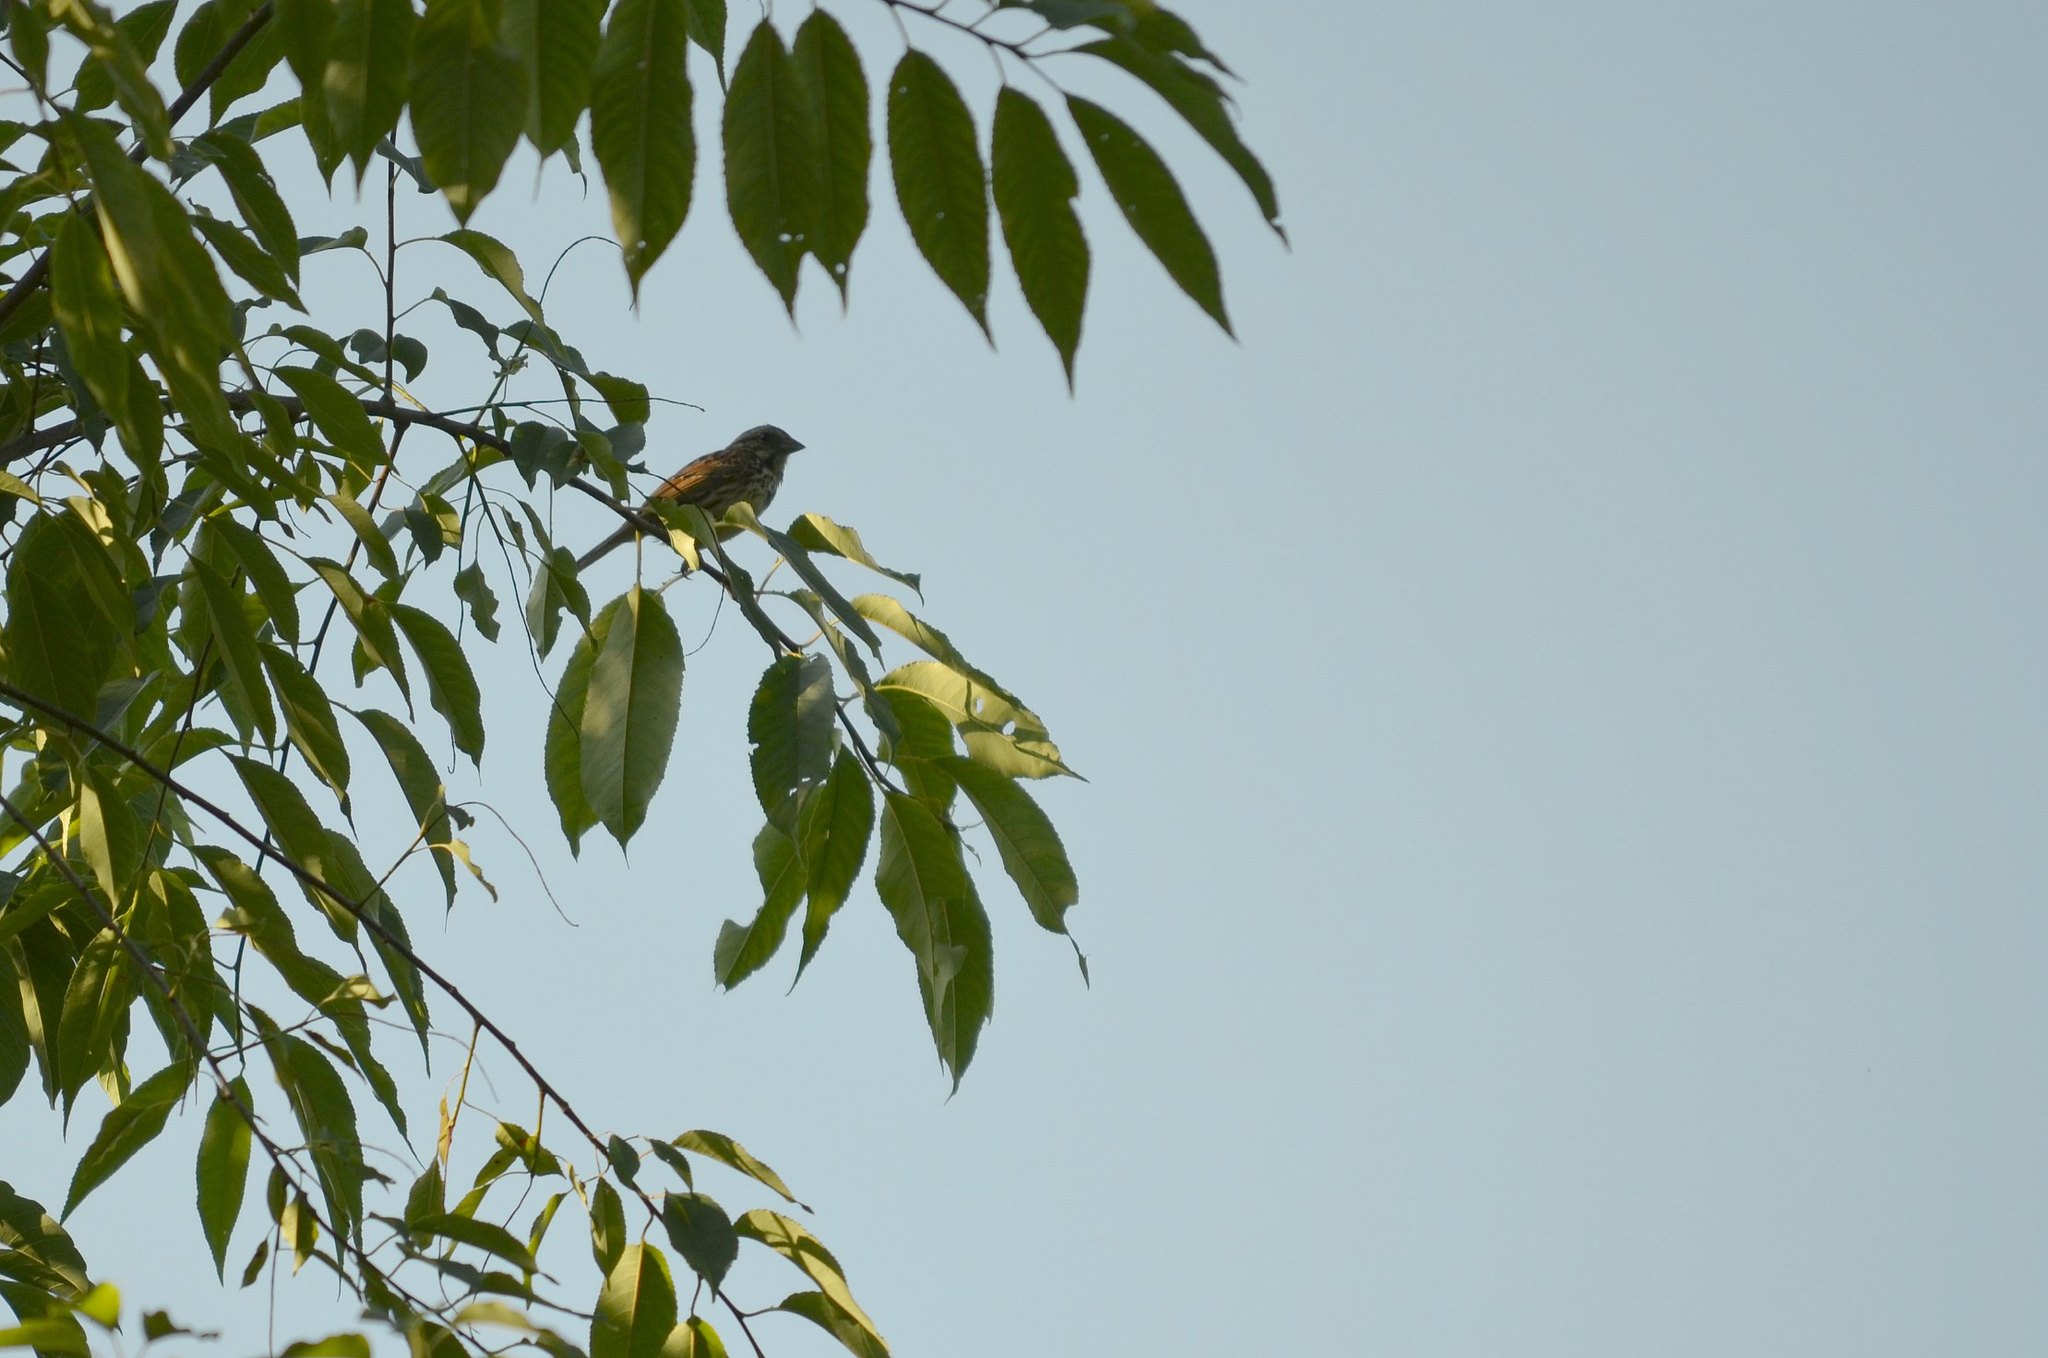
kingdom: Animalia
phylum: Chordata
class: Aves
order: Passeriformes
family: Passerellidae
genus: Melospiza
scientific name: Melospiza melodia
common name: Song sparrow
